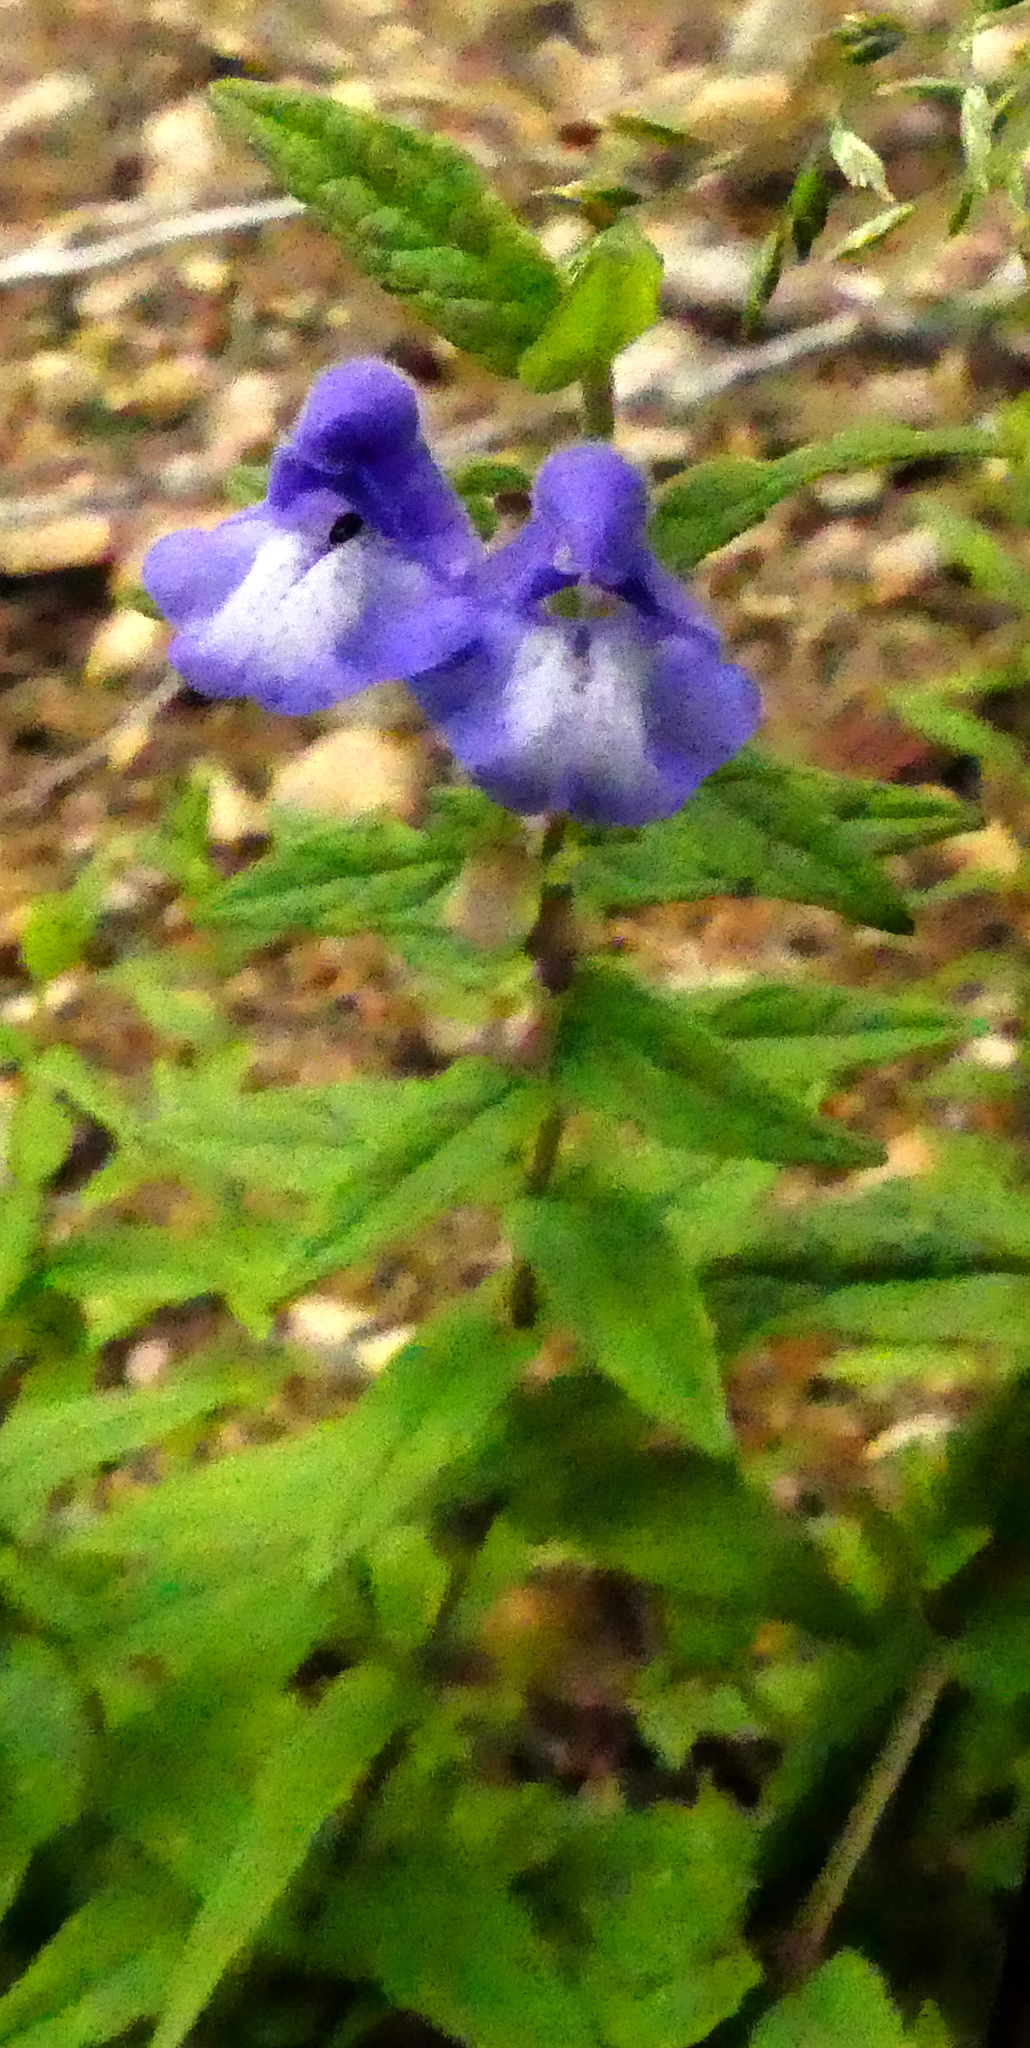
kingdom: Plantae
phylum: Tracheophyta
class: Magnoliopsida
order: Lamiales
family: Lamiaceae
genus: Scutellaria
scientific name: Scutellaria galericulata
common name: Skullcap
